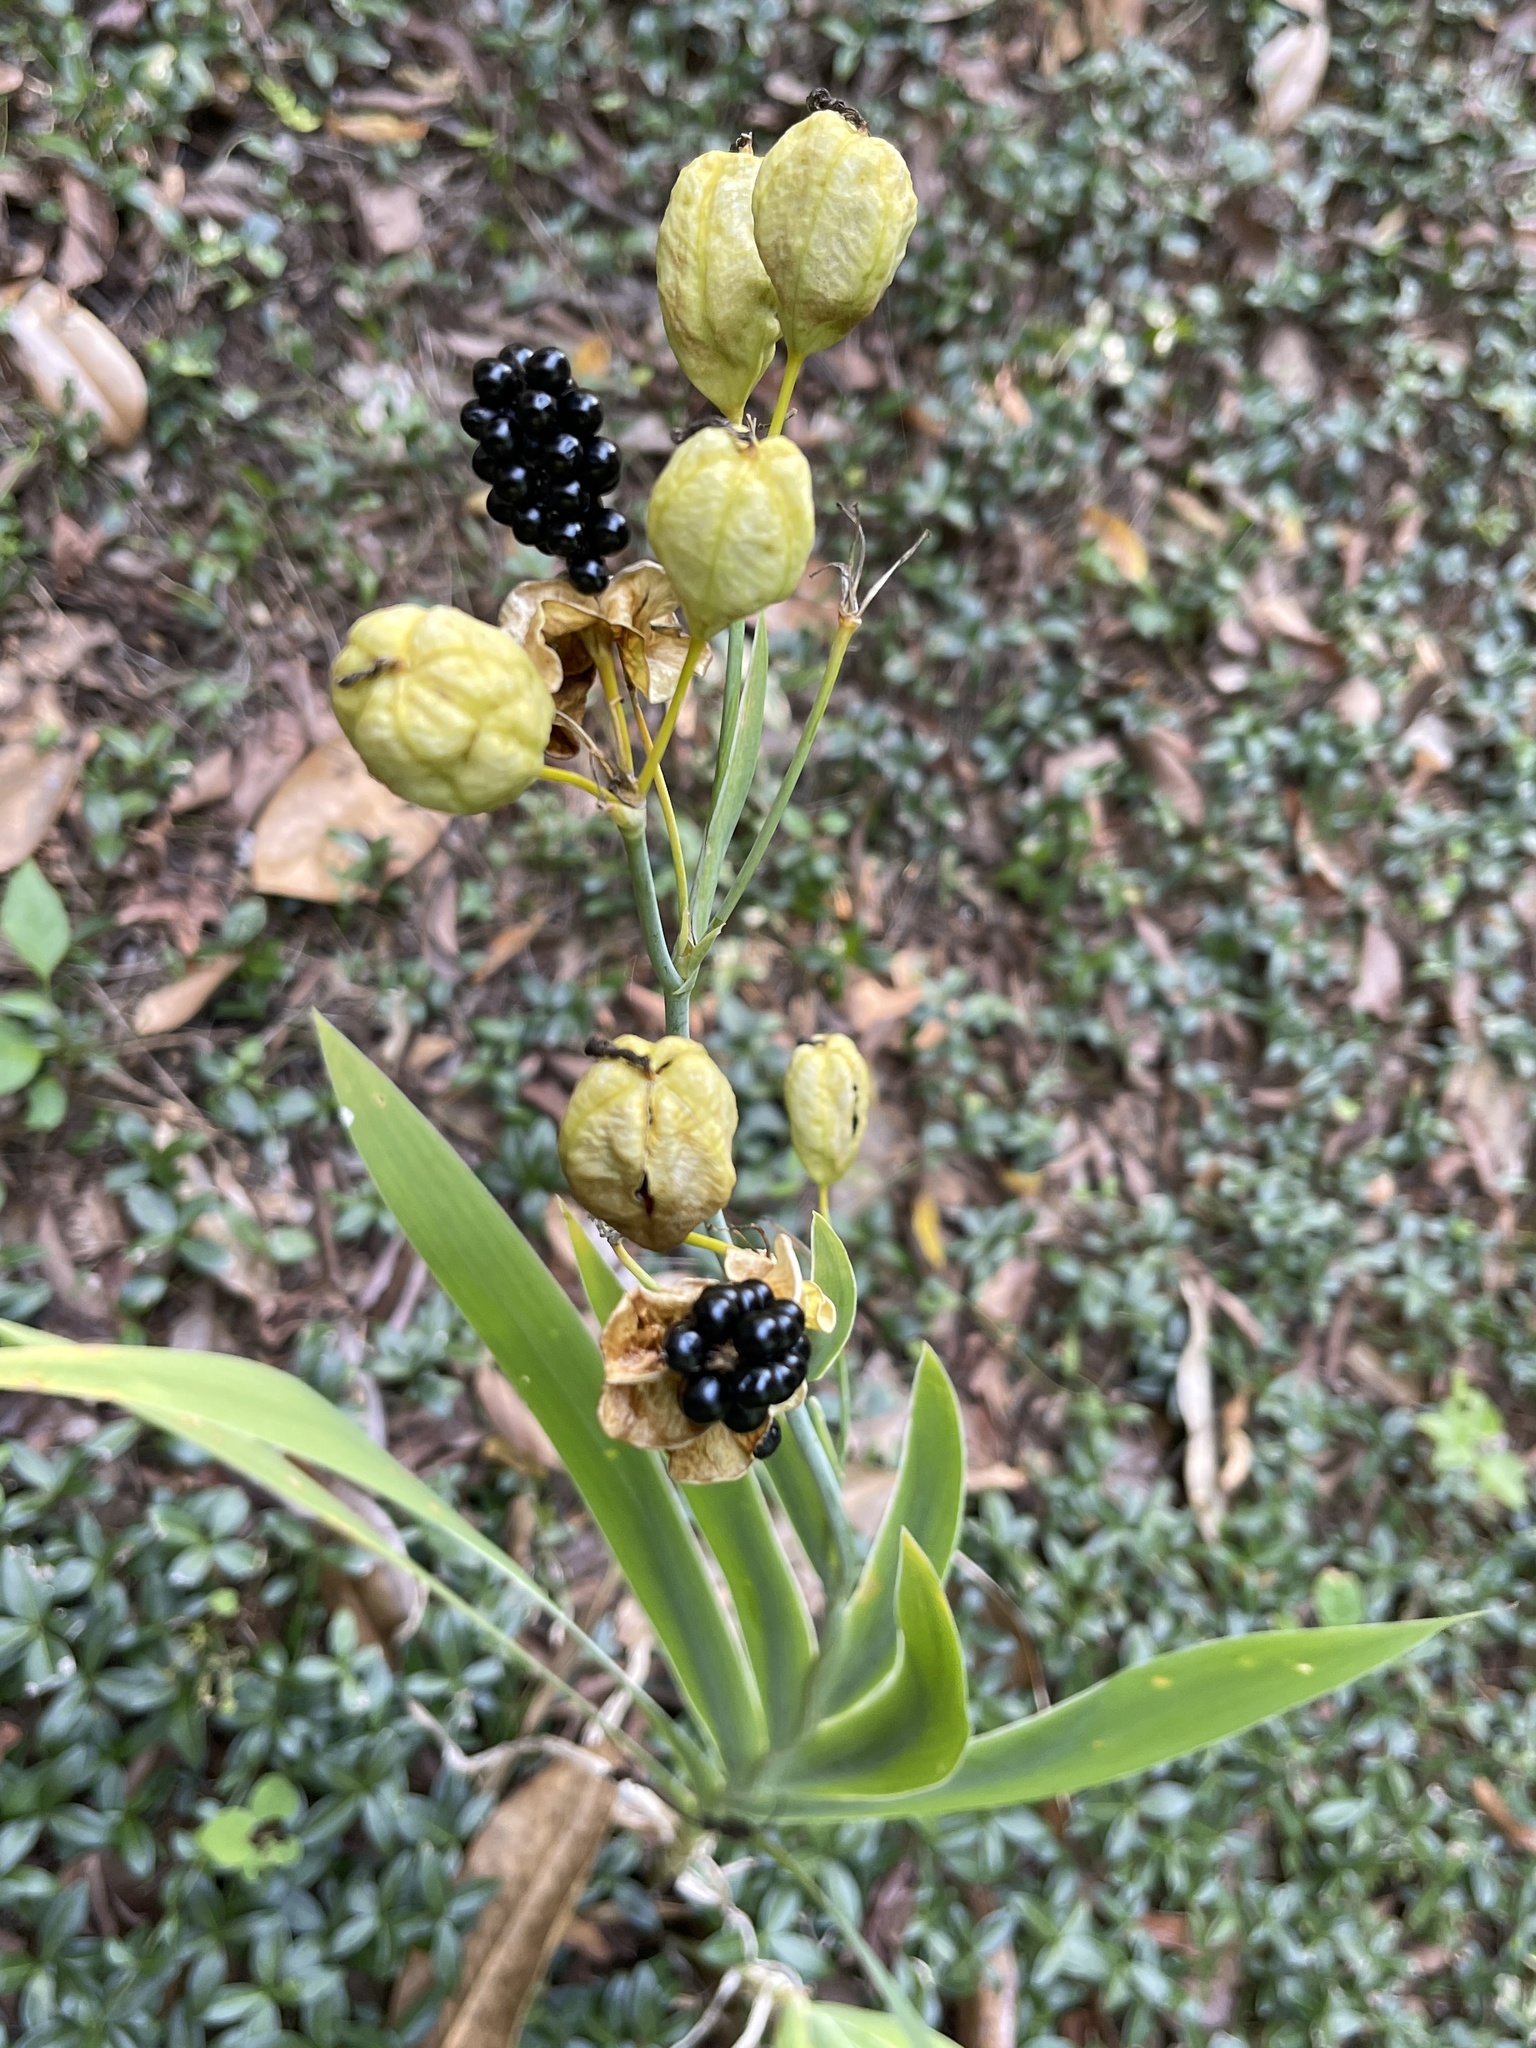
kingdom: Plantae
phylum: Tracheophyta
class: Liliopsida
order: Asparagales
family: Iridaceae
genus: Iris
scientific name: Iris domestica
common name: Belamcanda
